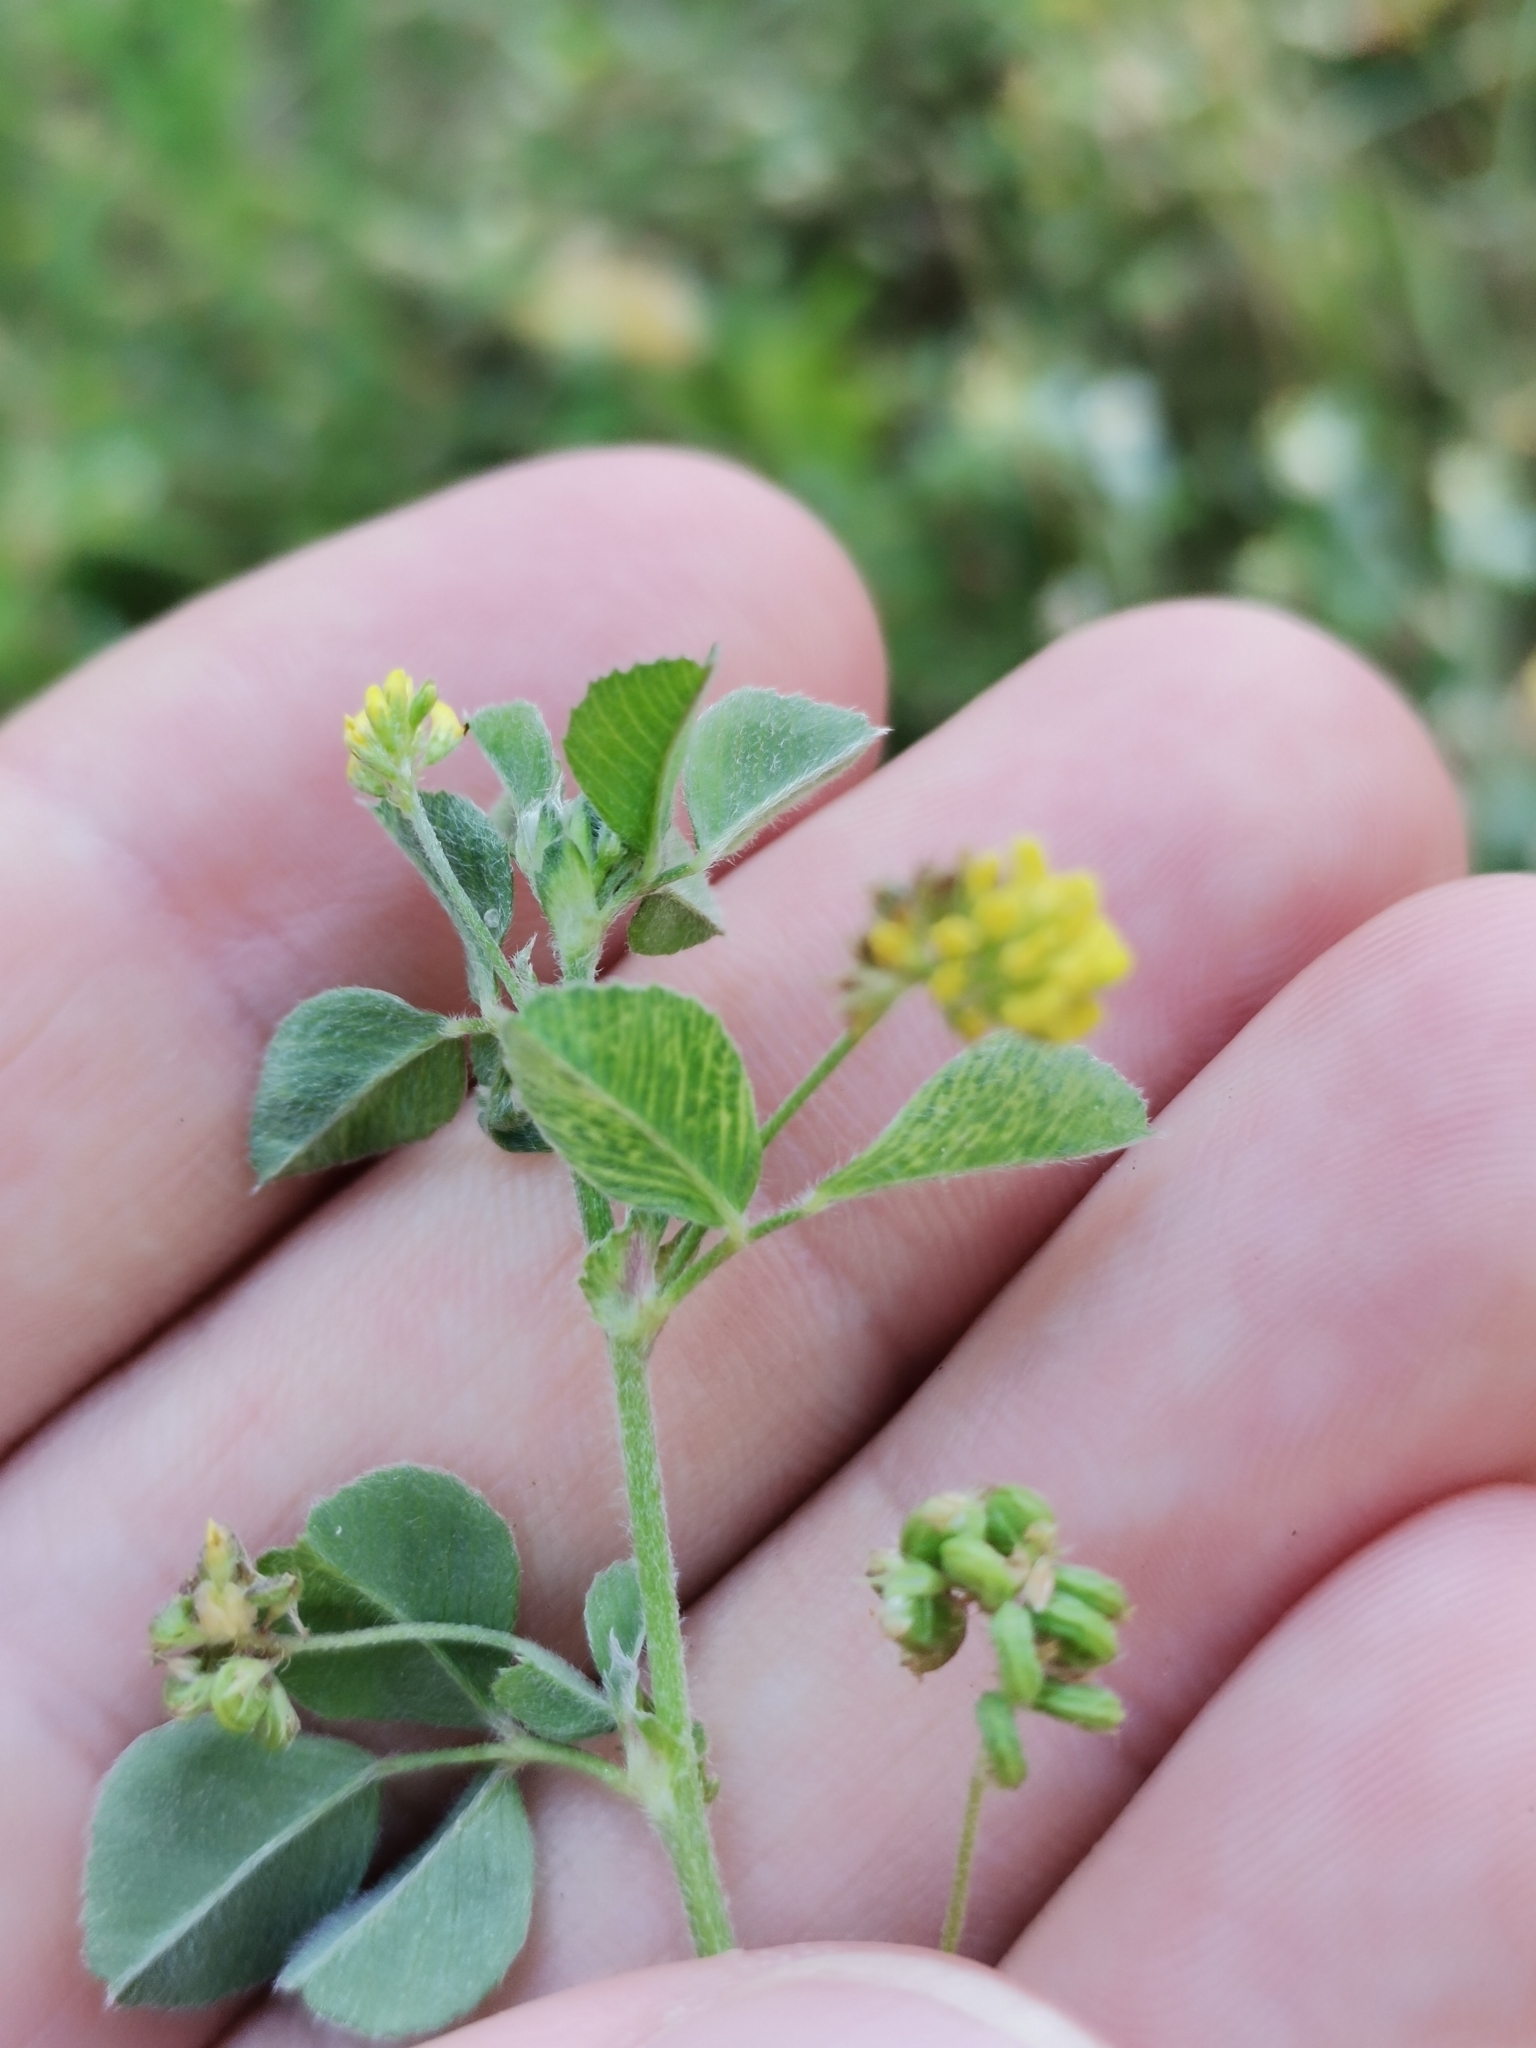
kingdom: Plantae
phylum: Tracheophyta
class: Magnoliopsida
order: Fabales
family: Fabaceae
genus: Medicago
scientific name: Medicago lupulina
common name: Black medick
